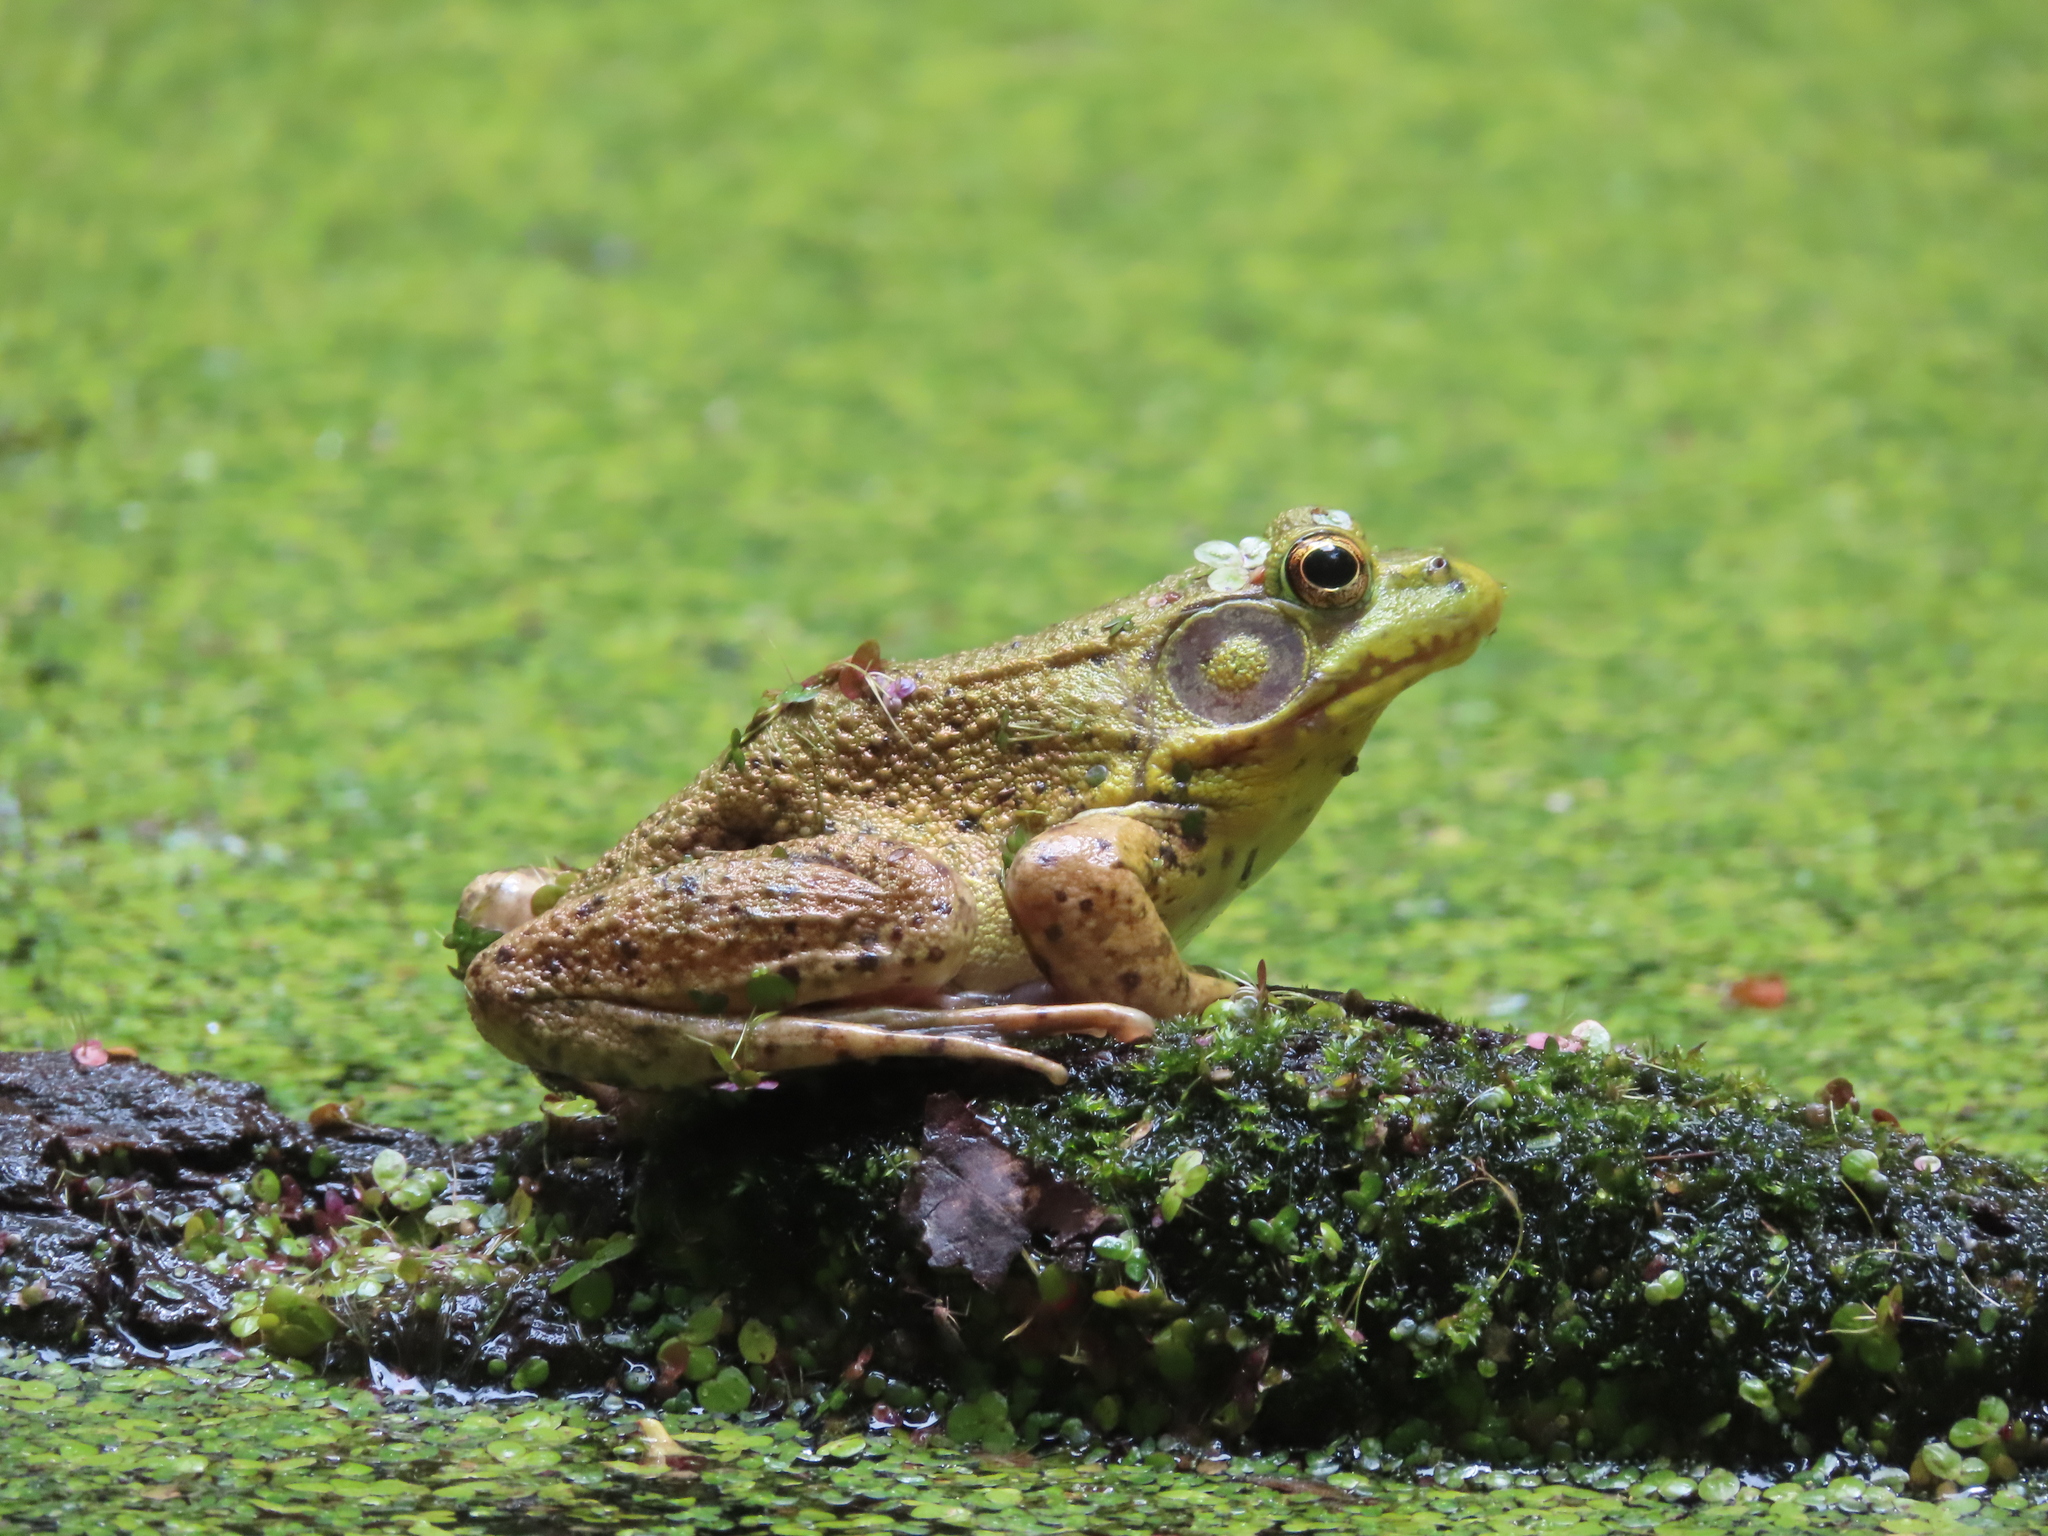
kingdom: Animalia
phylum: Chordata
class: Amphibia
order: Anura
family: Ranidae
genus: Lithobates
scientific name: Lithobates clamitans
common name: Green frog
